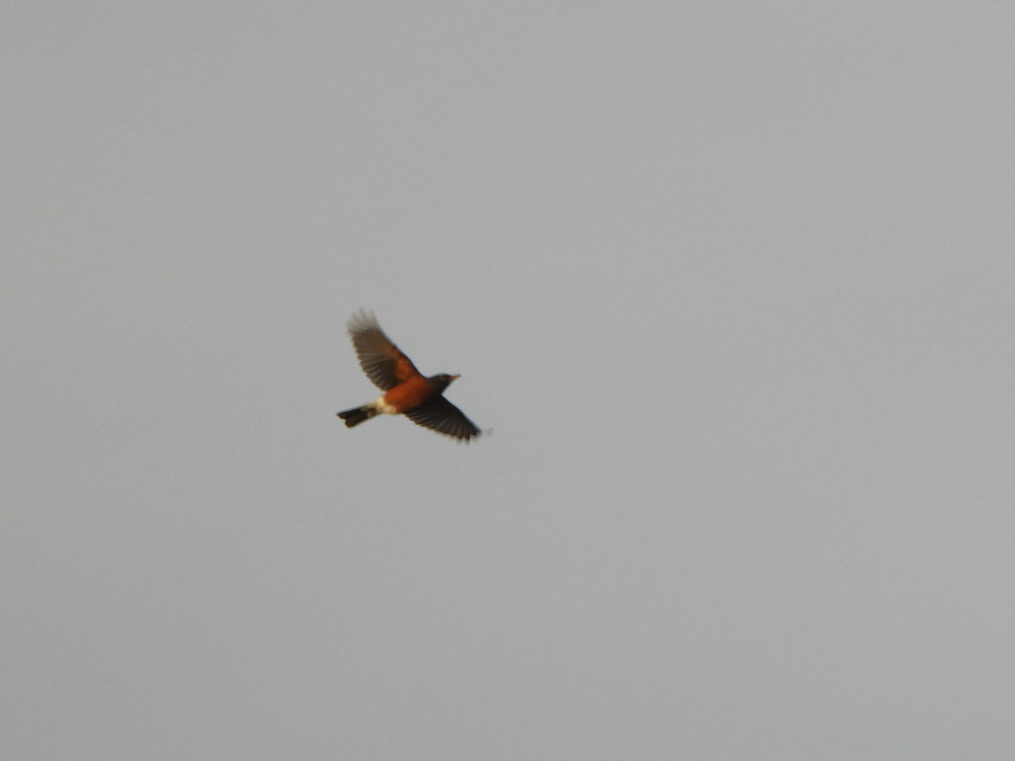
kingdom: Animalia
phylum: Chordata
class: Aves
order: Passeriformes
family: Turdidae
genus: Turdus
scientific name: Turdus migratorius
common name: American robin
